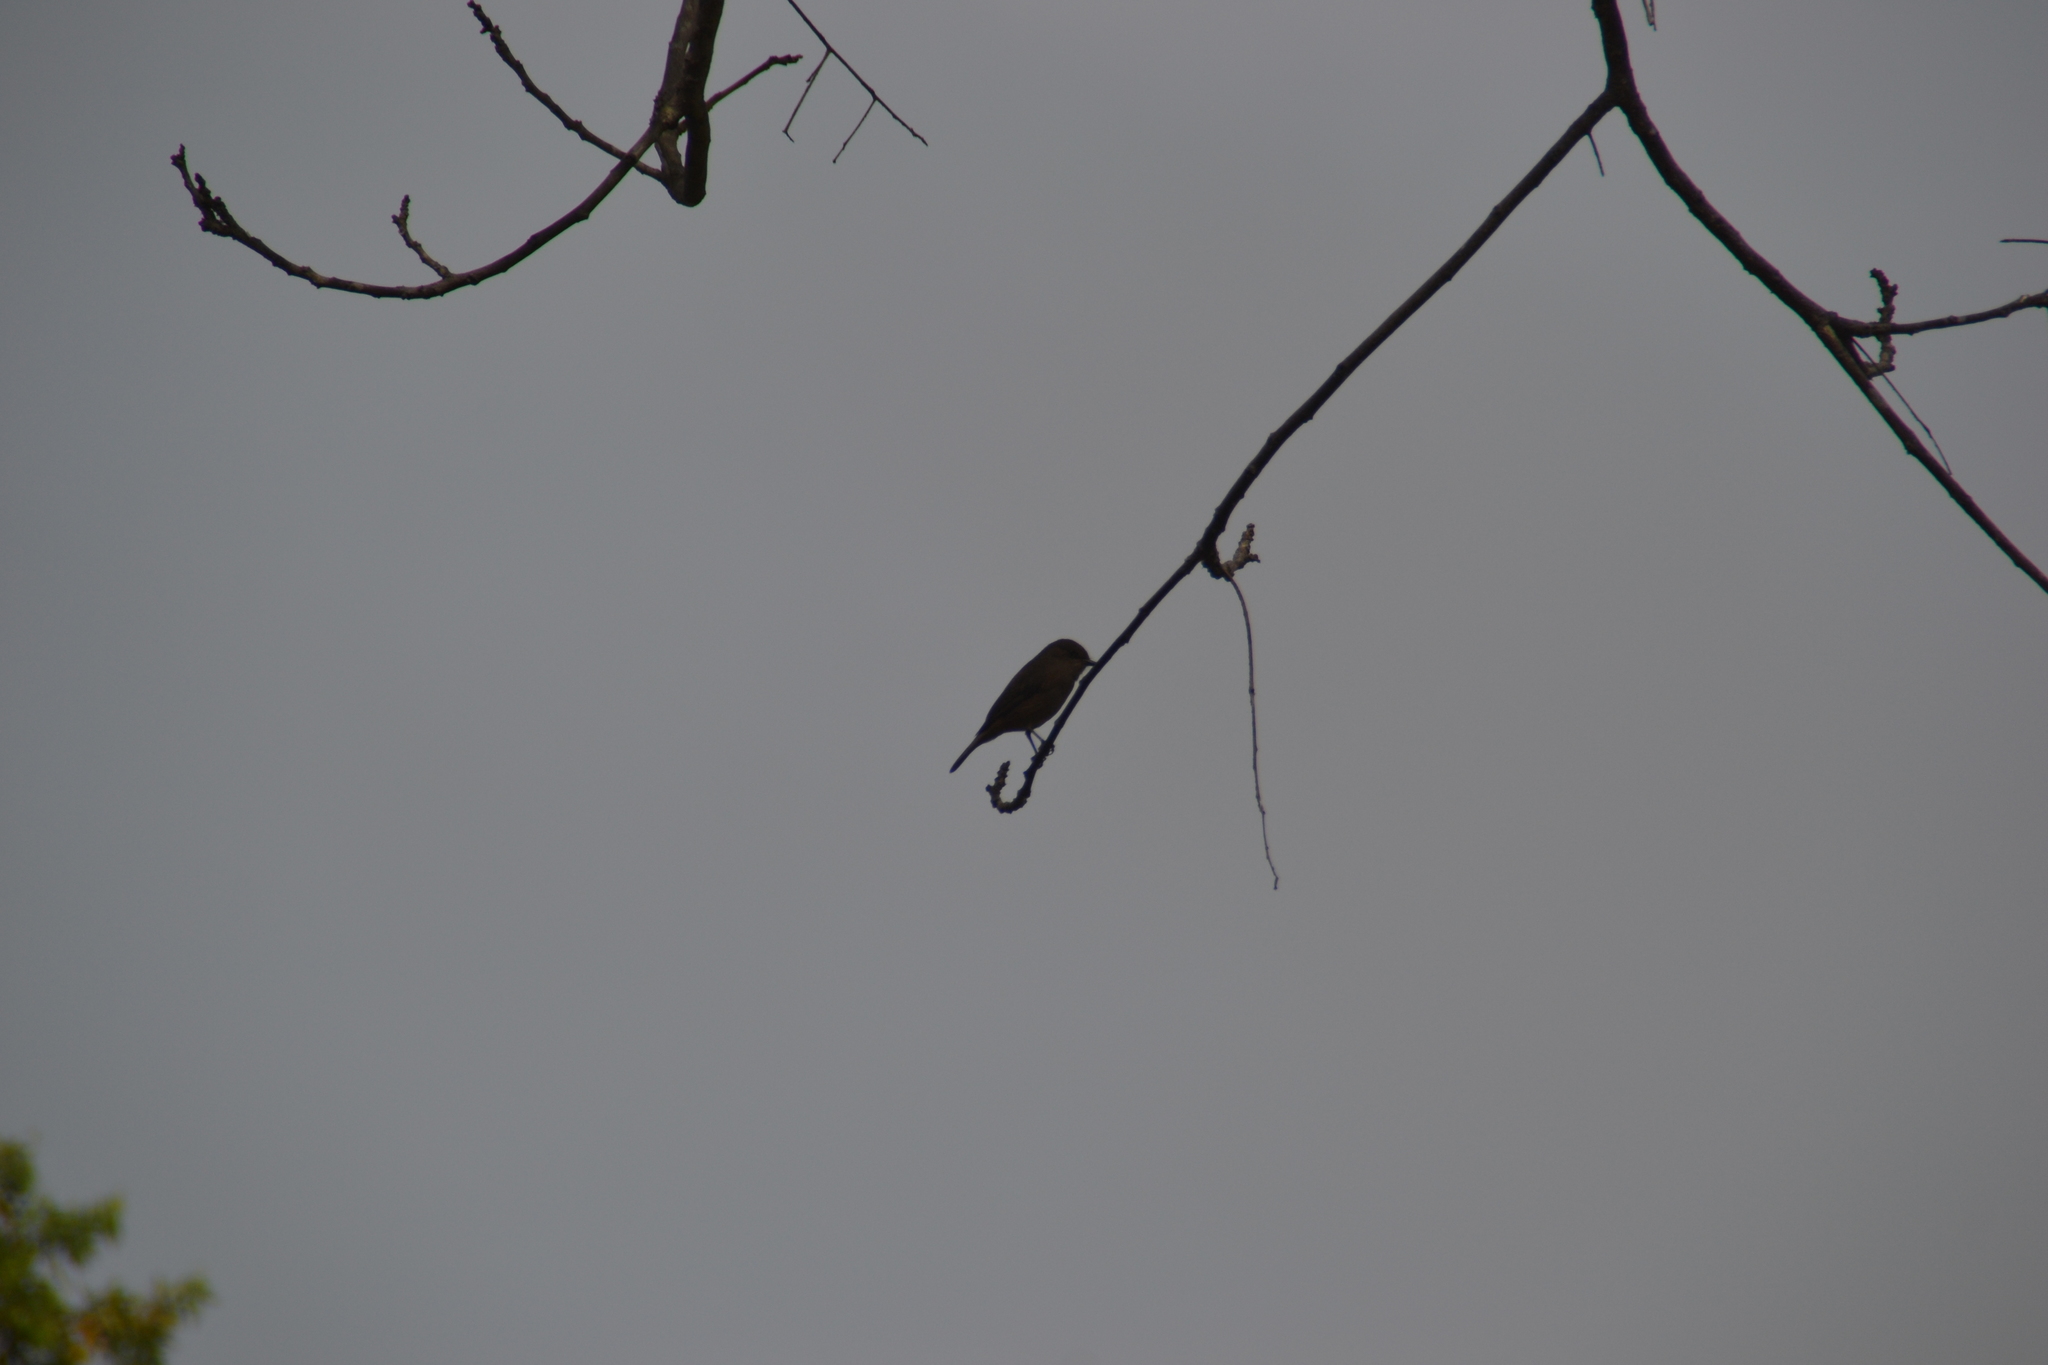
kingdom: Animalia
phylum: Chordata
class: Aves
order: Passeriformes
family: Tyrannidae
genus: Pyrocephalus
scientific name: Pyrocephalus rubinus
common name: Vermilion flycatcher
